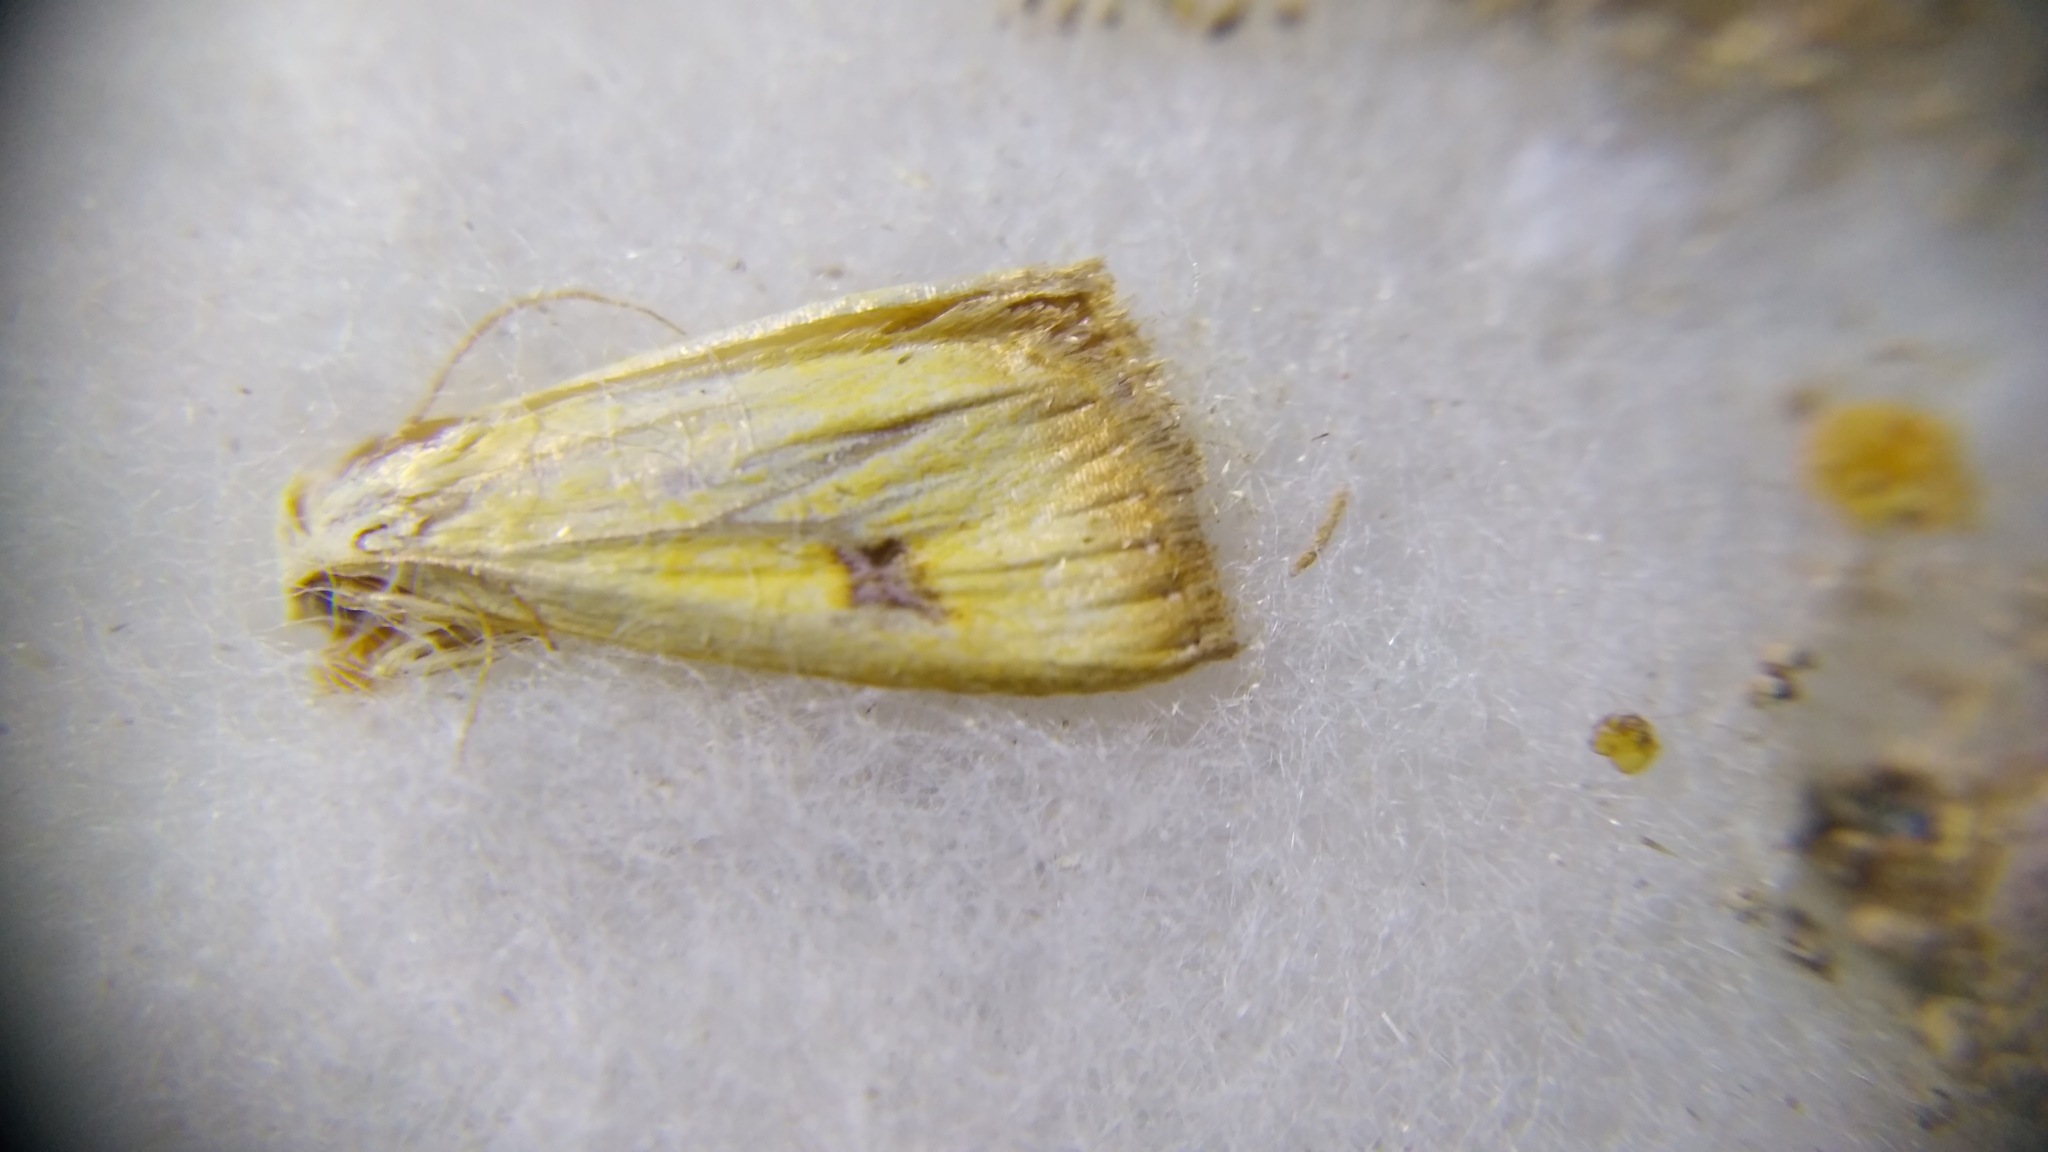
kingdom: Animalia
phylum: Arthropoda
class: Insecta
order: Lepidoptera
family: Erebidae
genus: Rivula
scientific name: Rivula sericealis
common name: Straw dot
